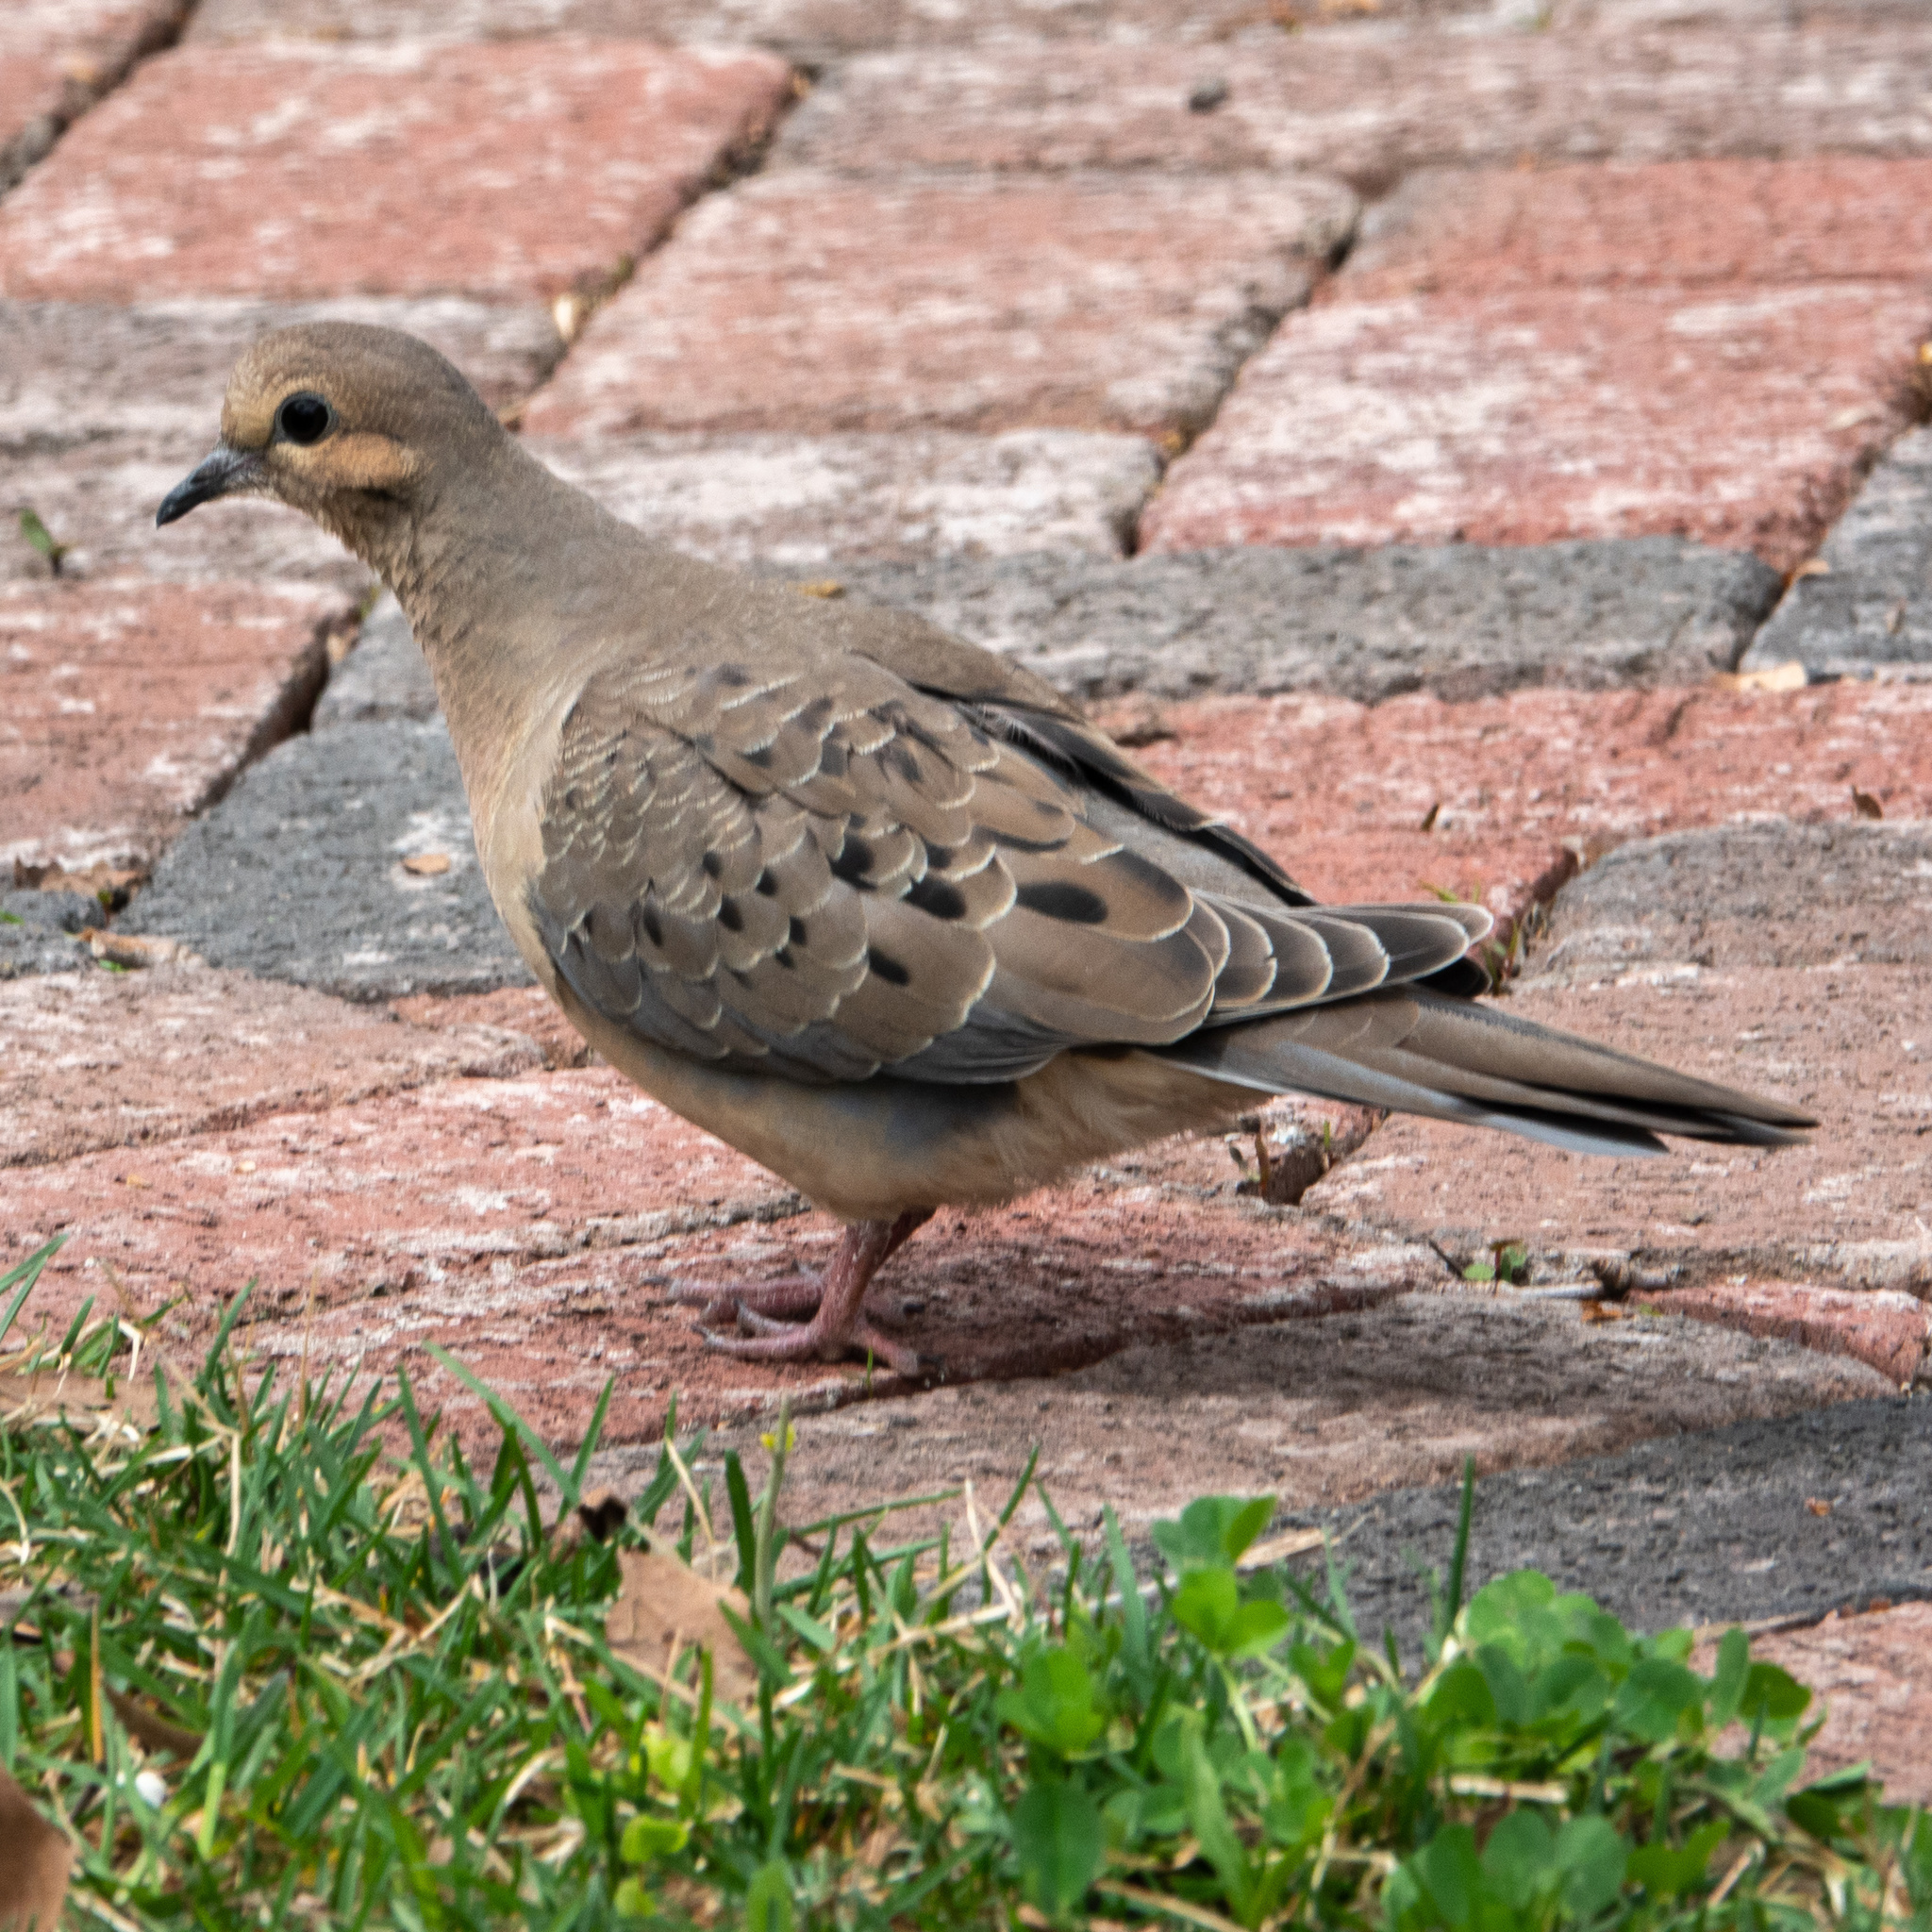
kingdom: Animalia
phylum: Chordata
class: Aves
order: Columbiformes
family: Columbidae
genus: Zenaida
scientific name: Zenaida macroura
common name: Mourning dove
